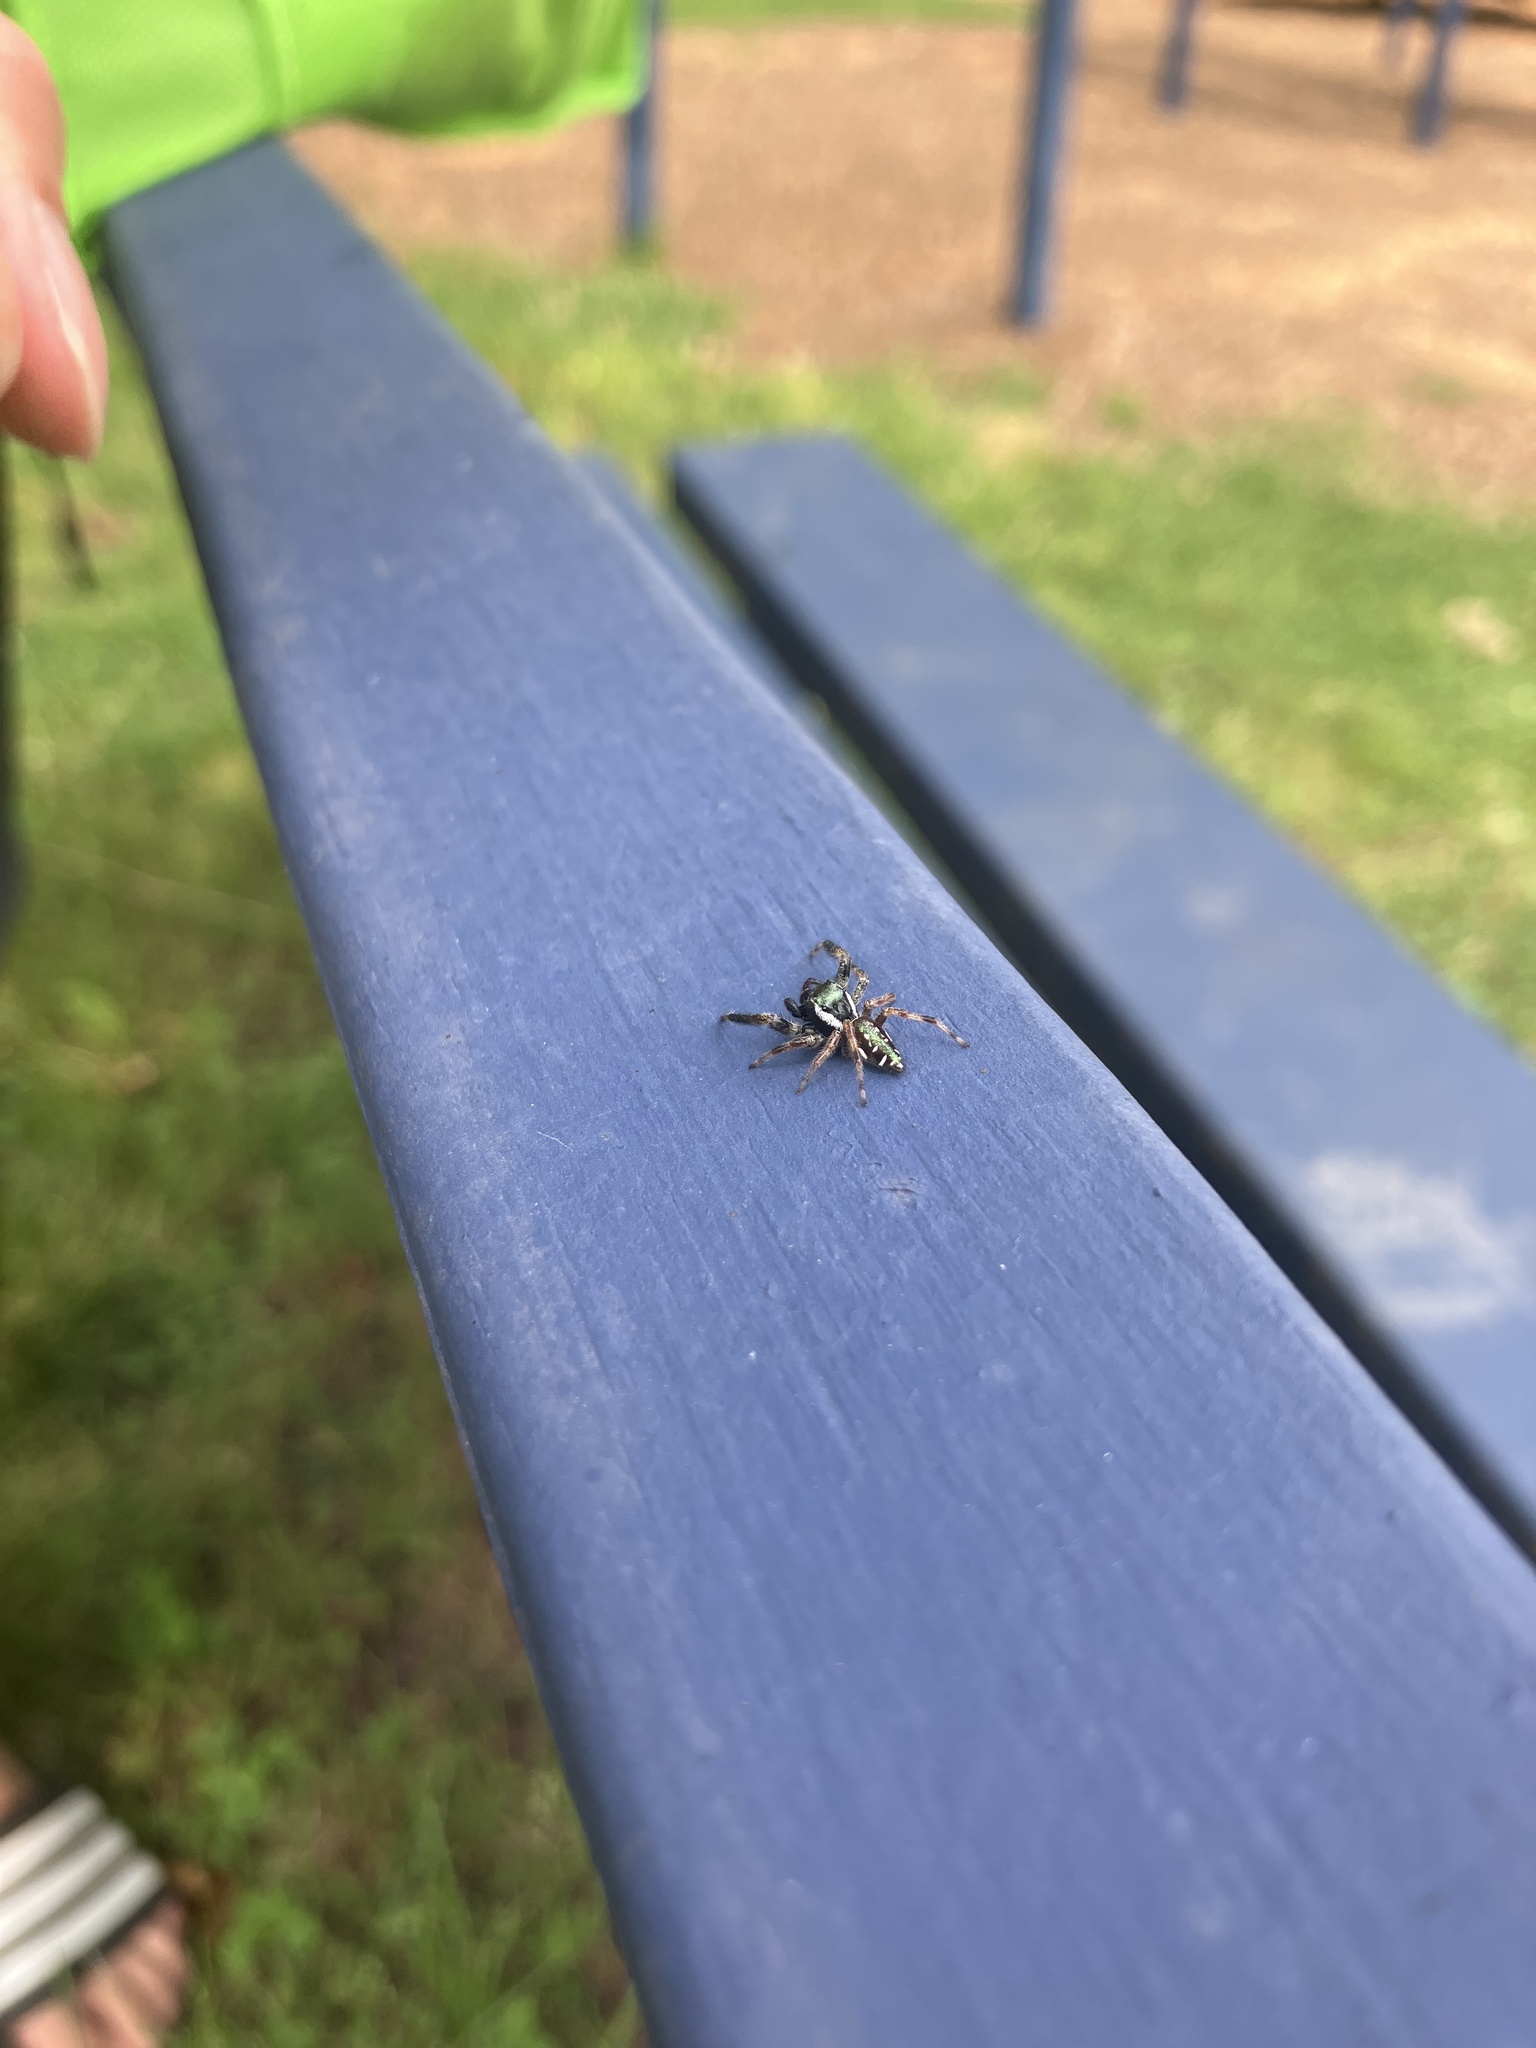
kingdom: Animalia
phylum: Arthropoda
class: Arachnida
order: Araneae
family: Salticidae
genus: Paraphidippus
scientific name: Paraphidippus aurantius
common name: Jumping spiders
